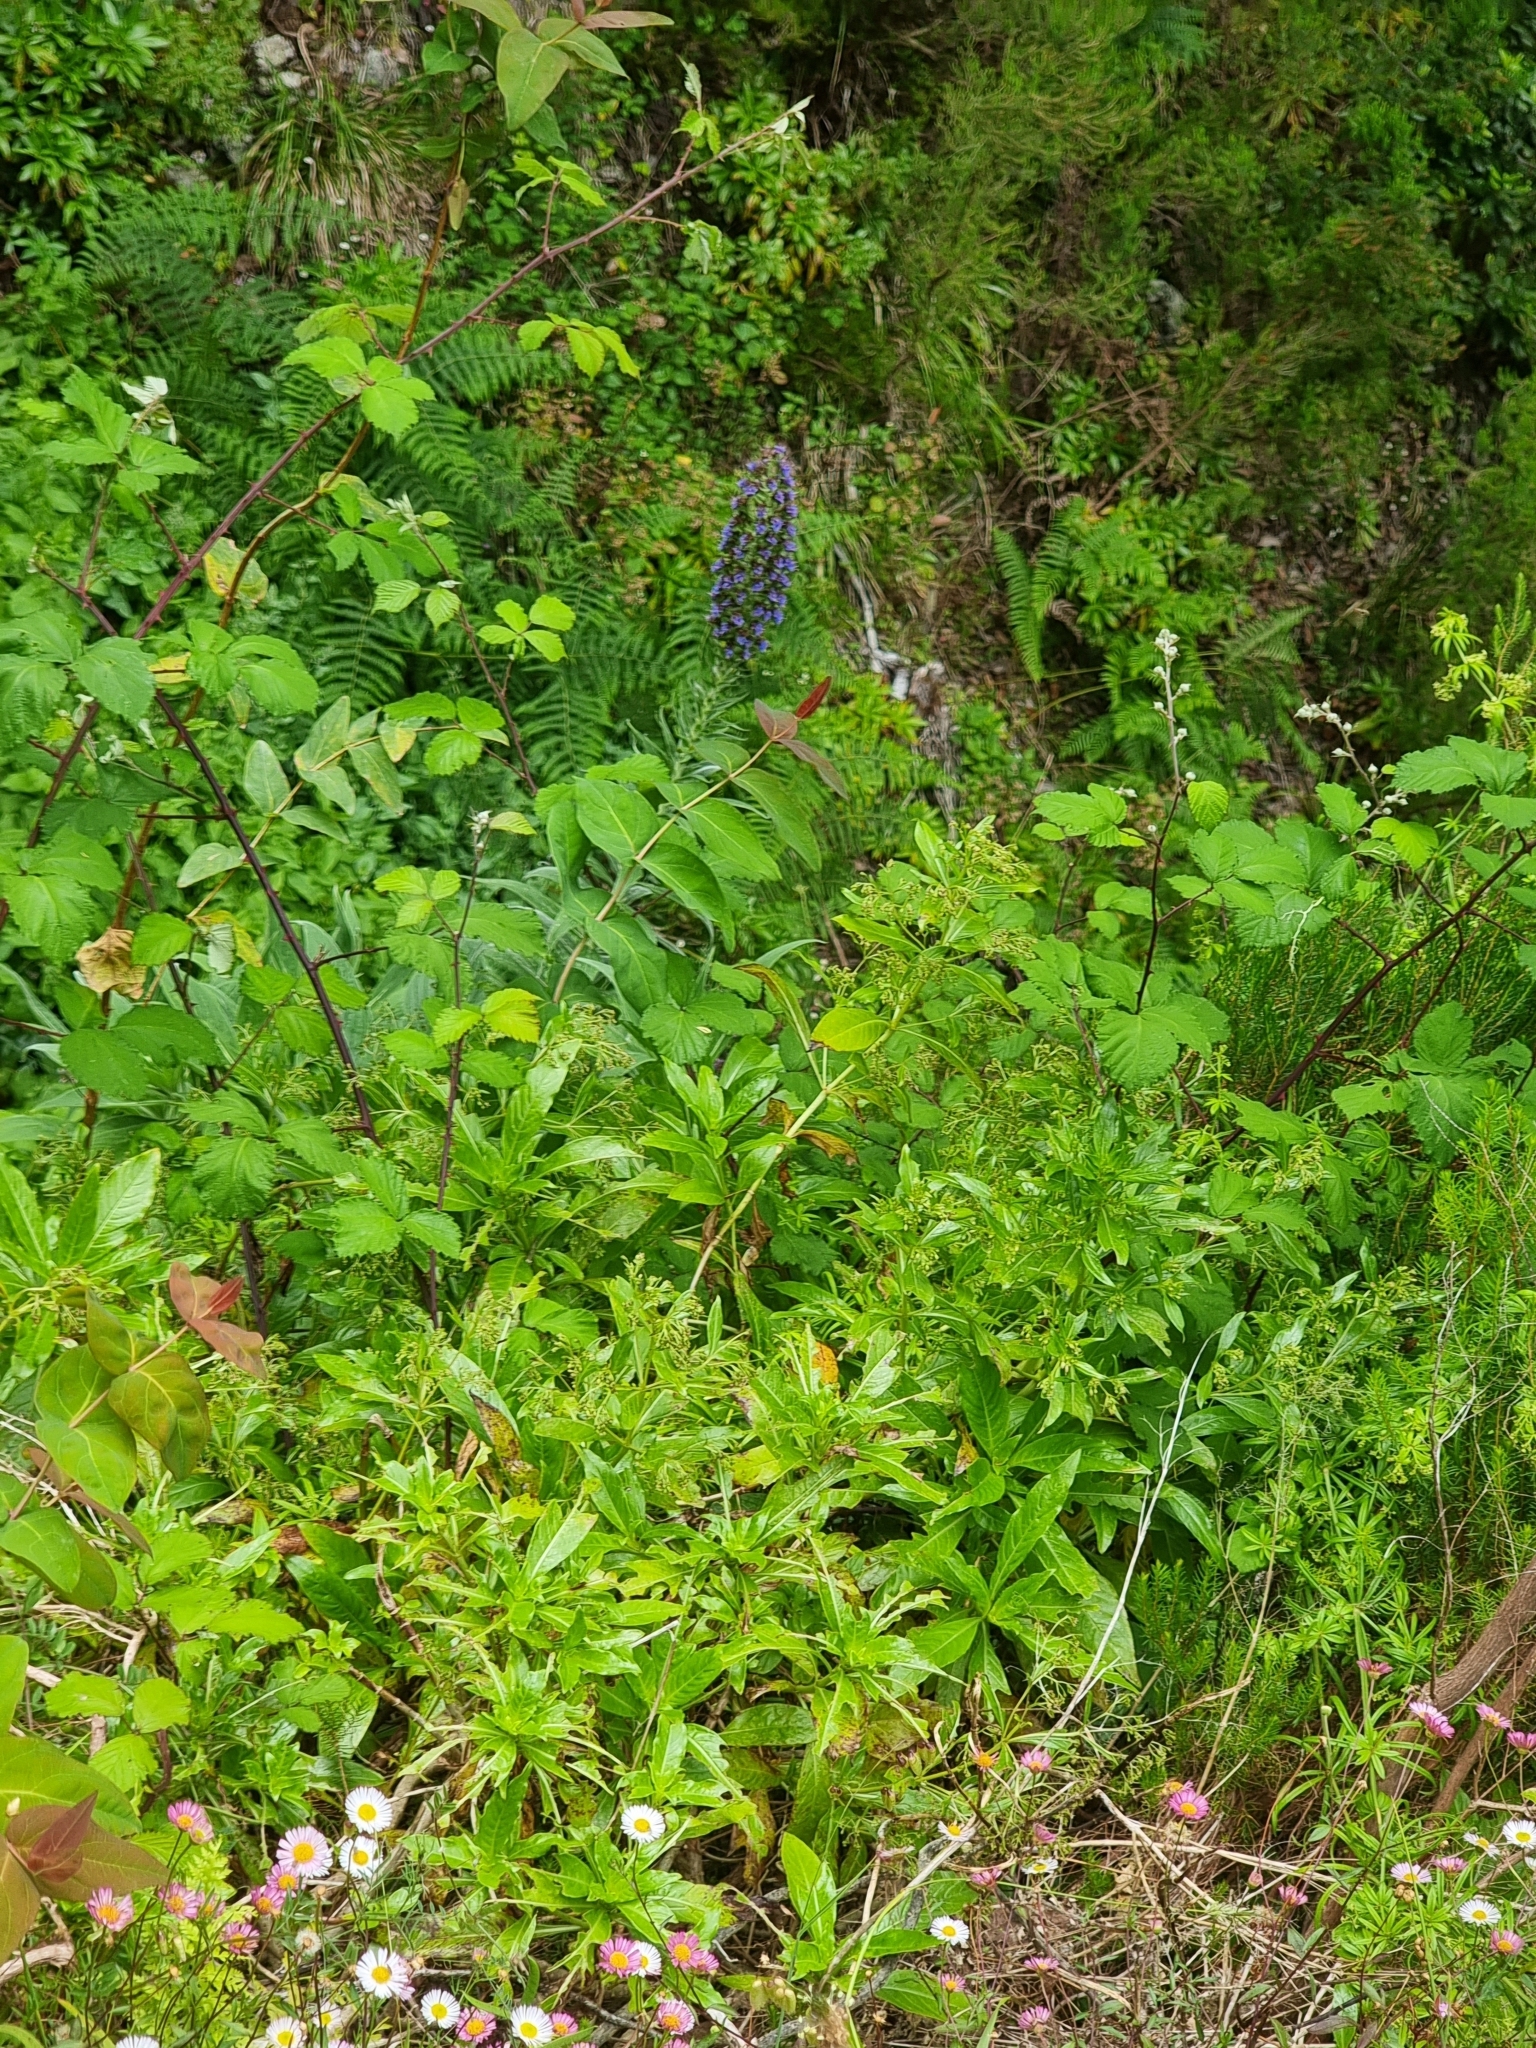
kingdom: Plantae
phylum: Tracheophyta
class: Magnoliopsida
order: Boraginales
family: Boraginaceae
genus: Echium
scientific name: Echium candicans
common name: Pride of madeira
